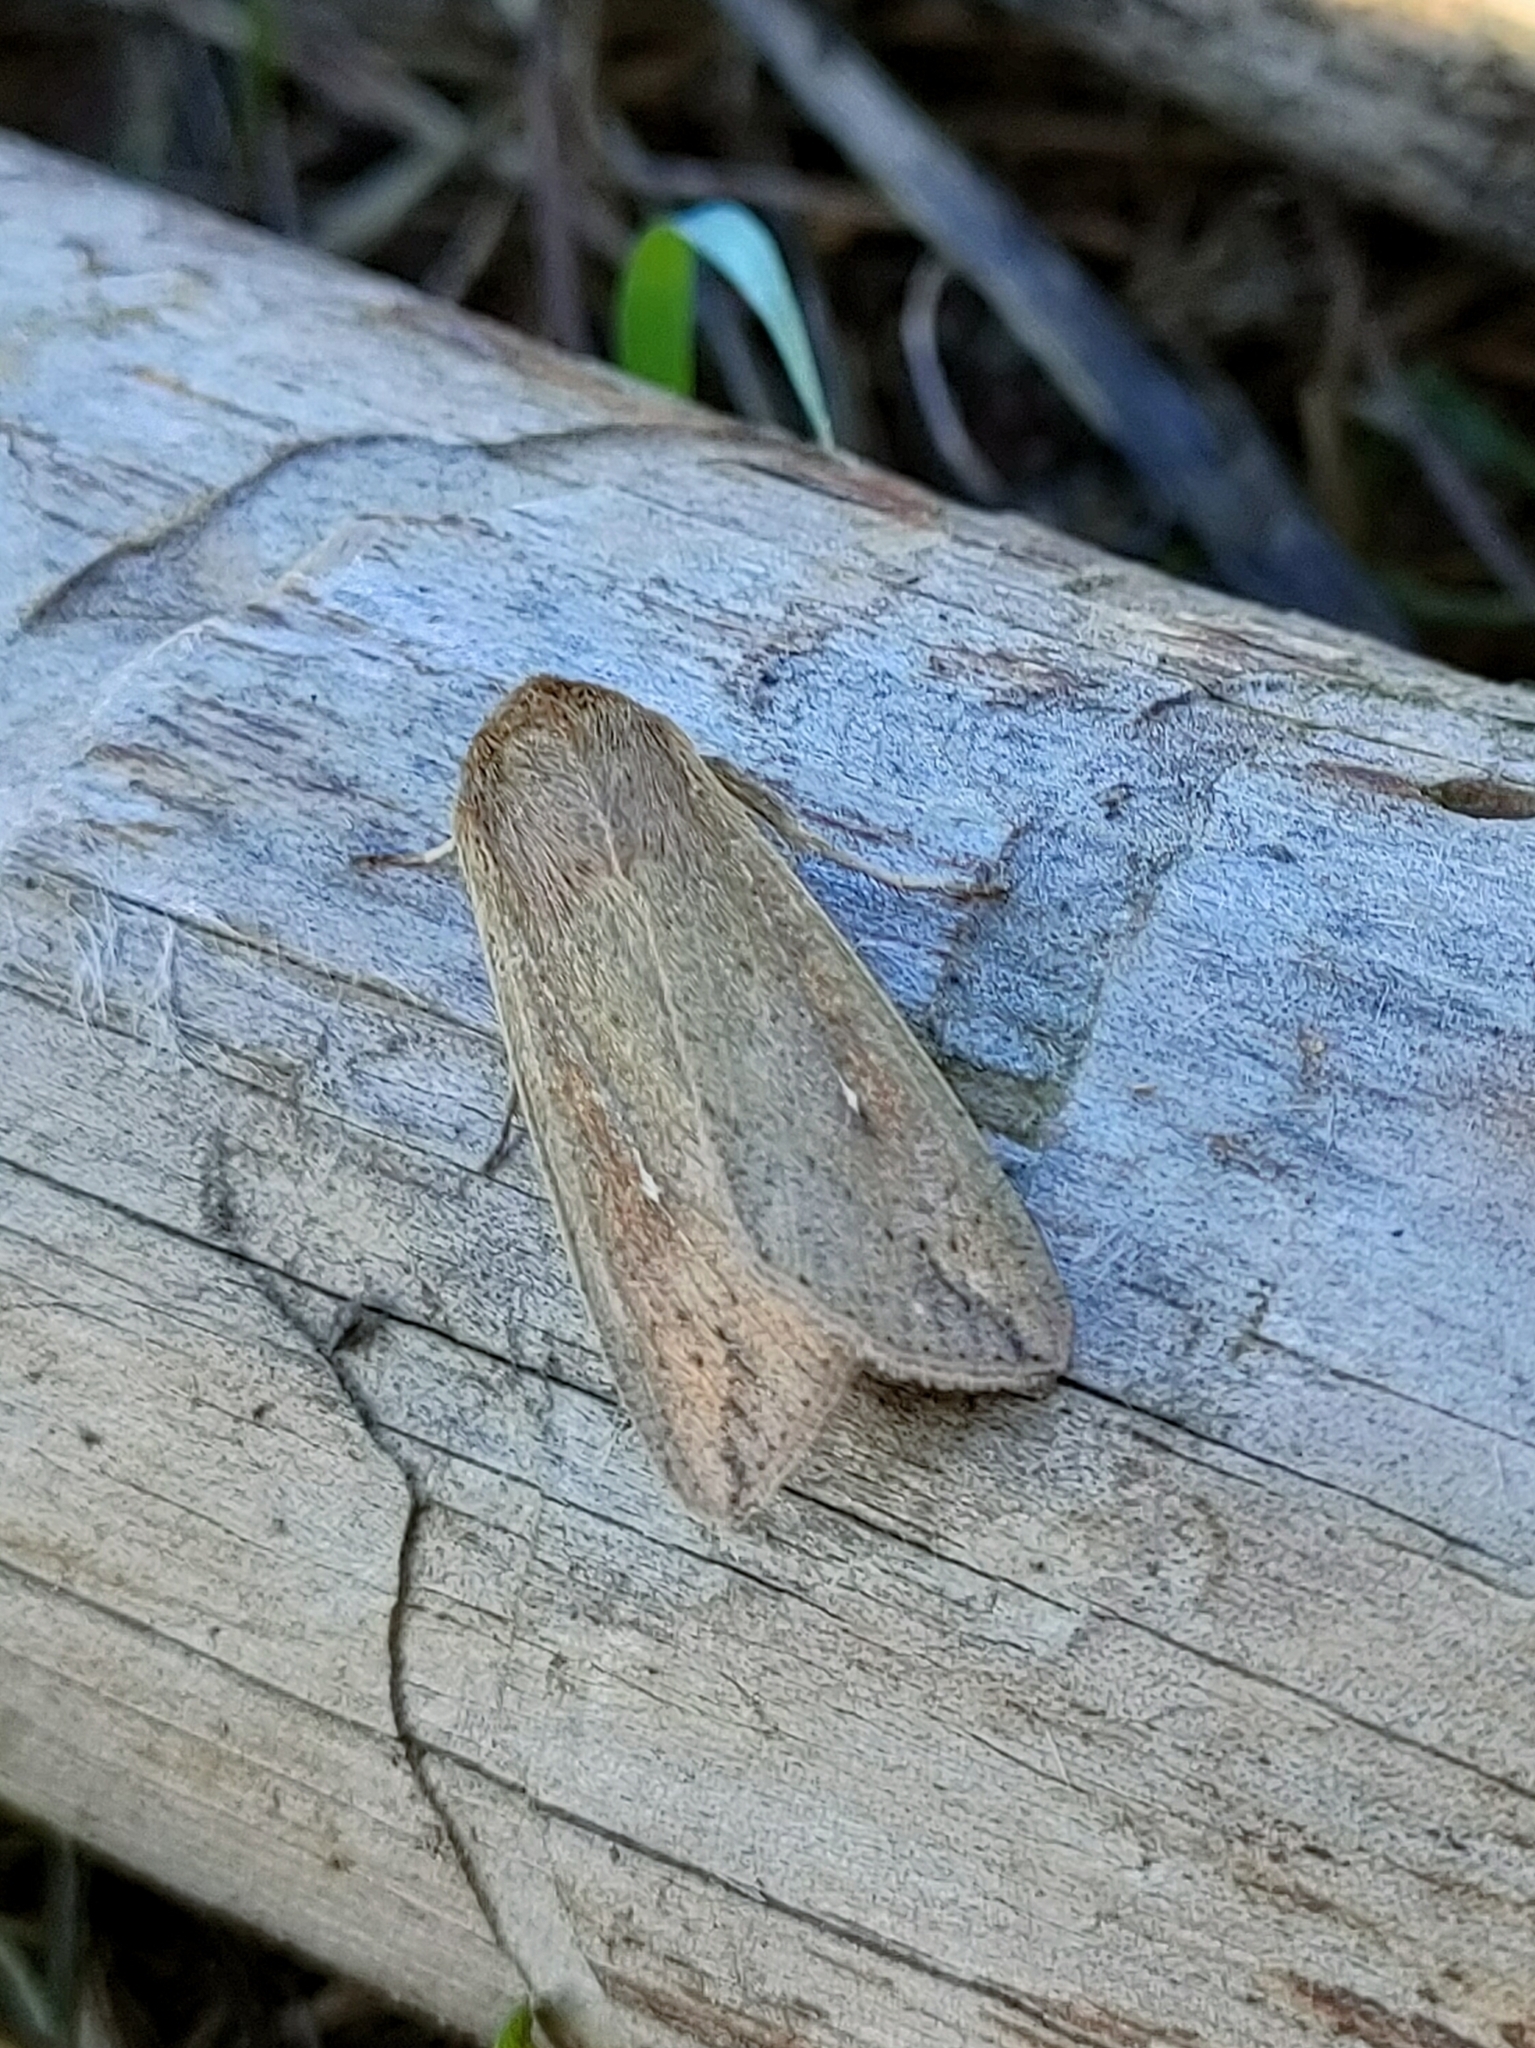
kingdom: Animalia
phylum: Arthropoda
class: Insecta
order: Lepidoptera
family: Noctuidae
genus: Mythimna
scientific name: Mythimna unipuncta
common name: White-speck
